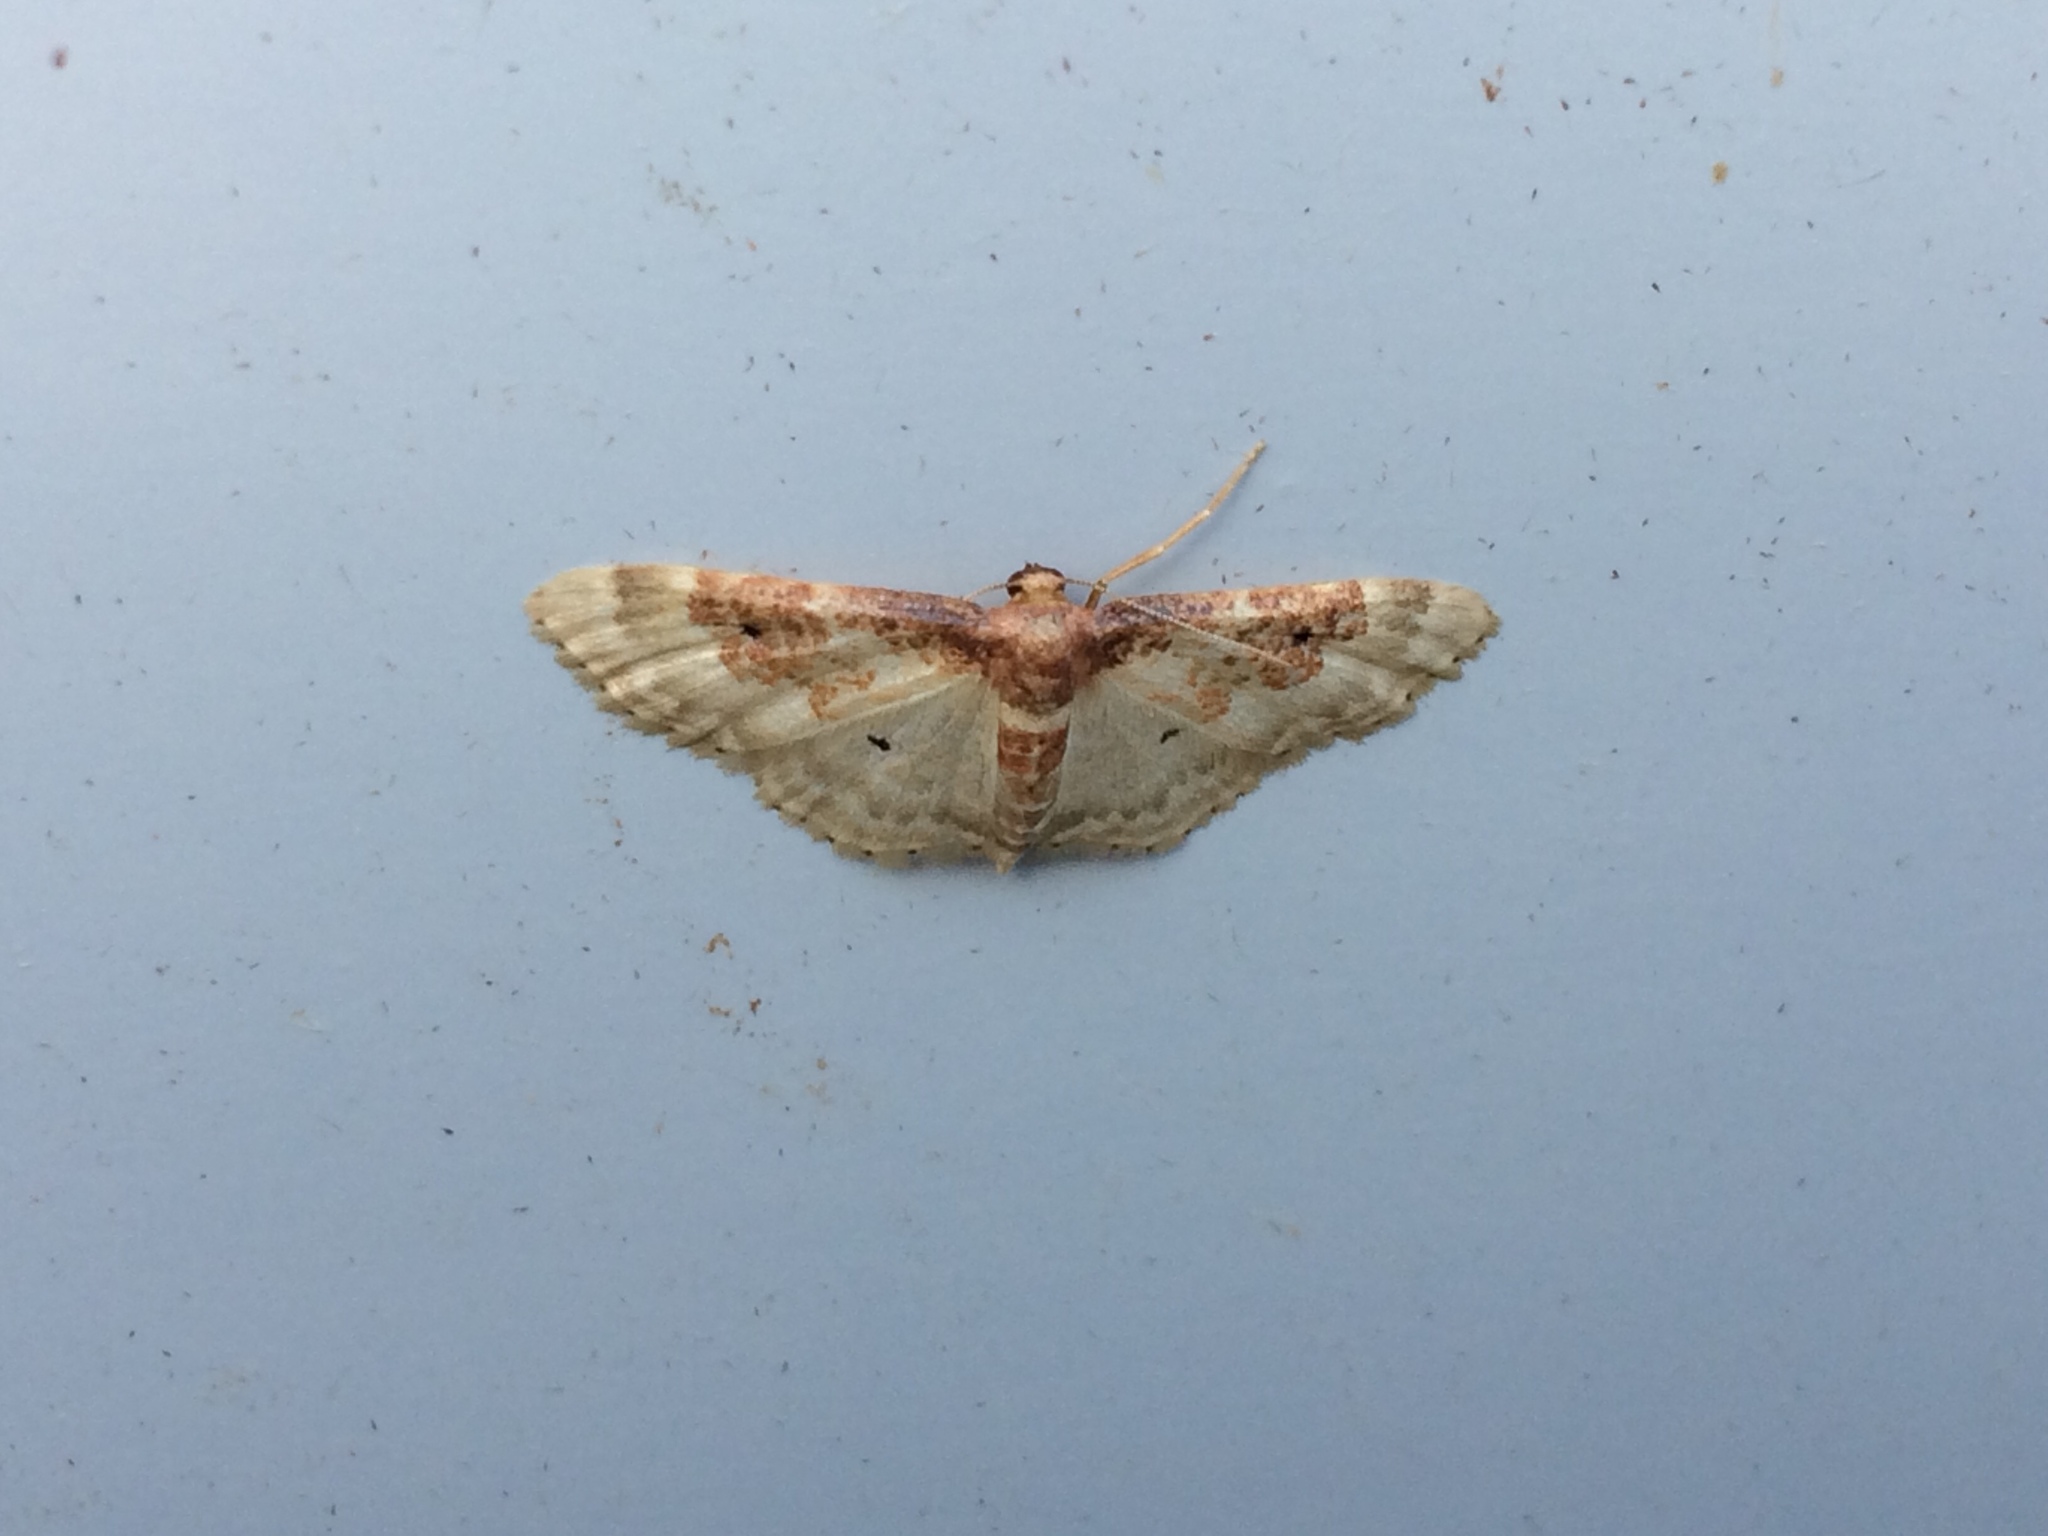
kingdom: Animalia
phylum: Arthropoda
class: Insecta
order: Lepidoptera
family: Geometridae
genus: Idaea
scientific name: Idaea rusticata
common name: Least carpet
